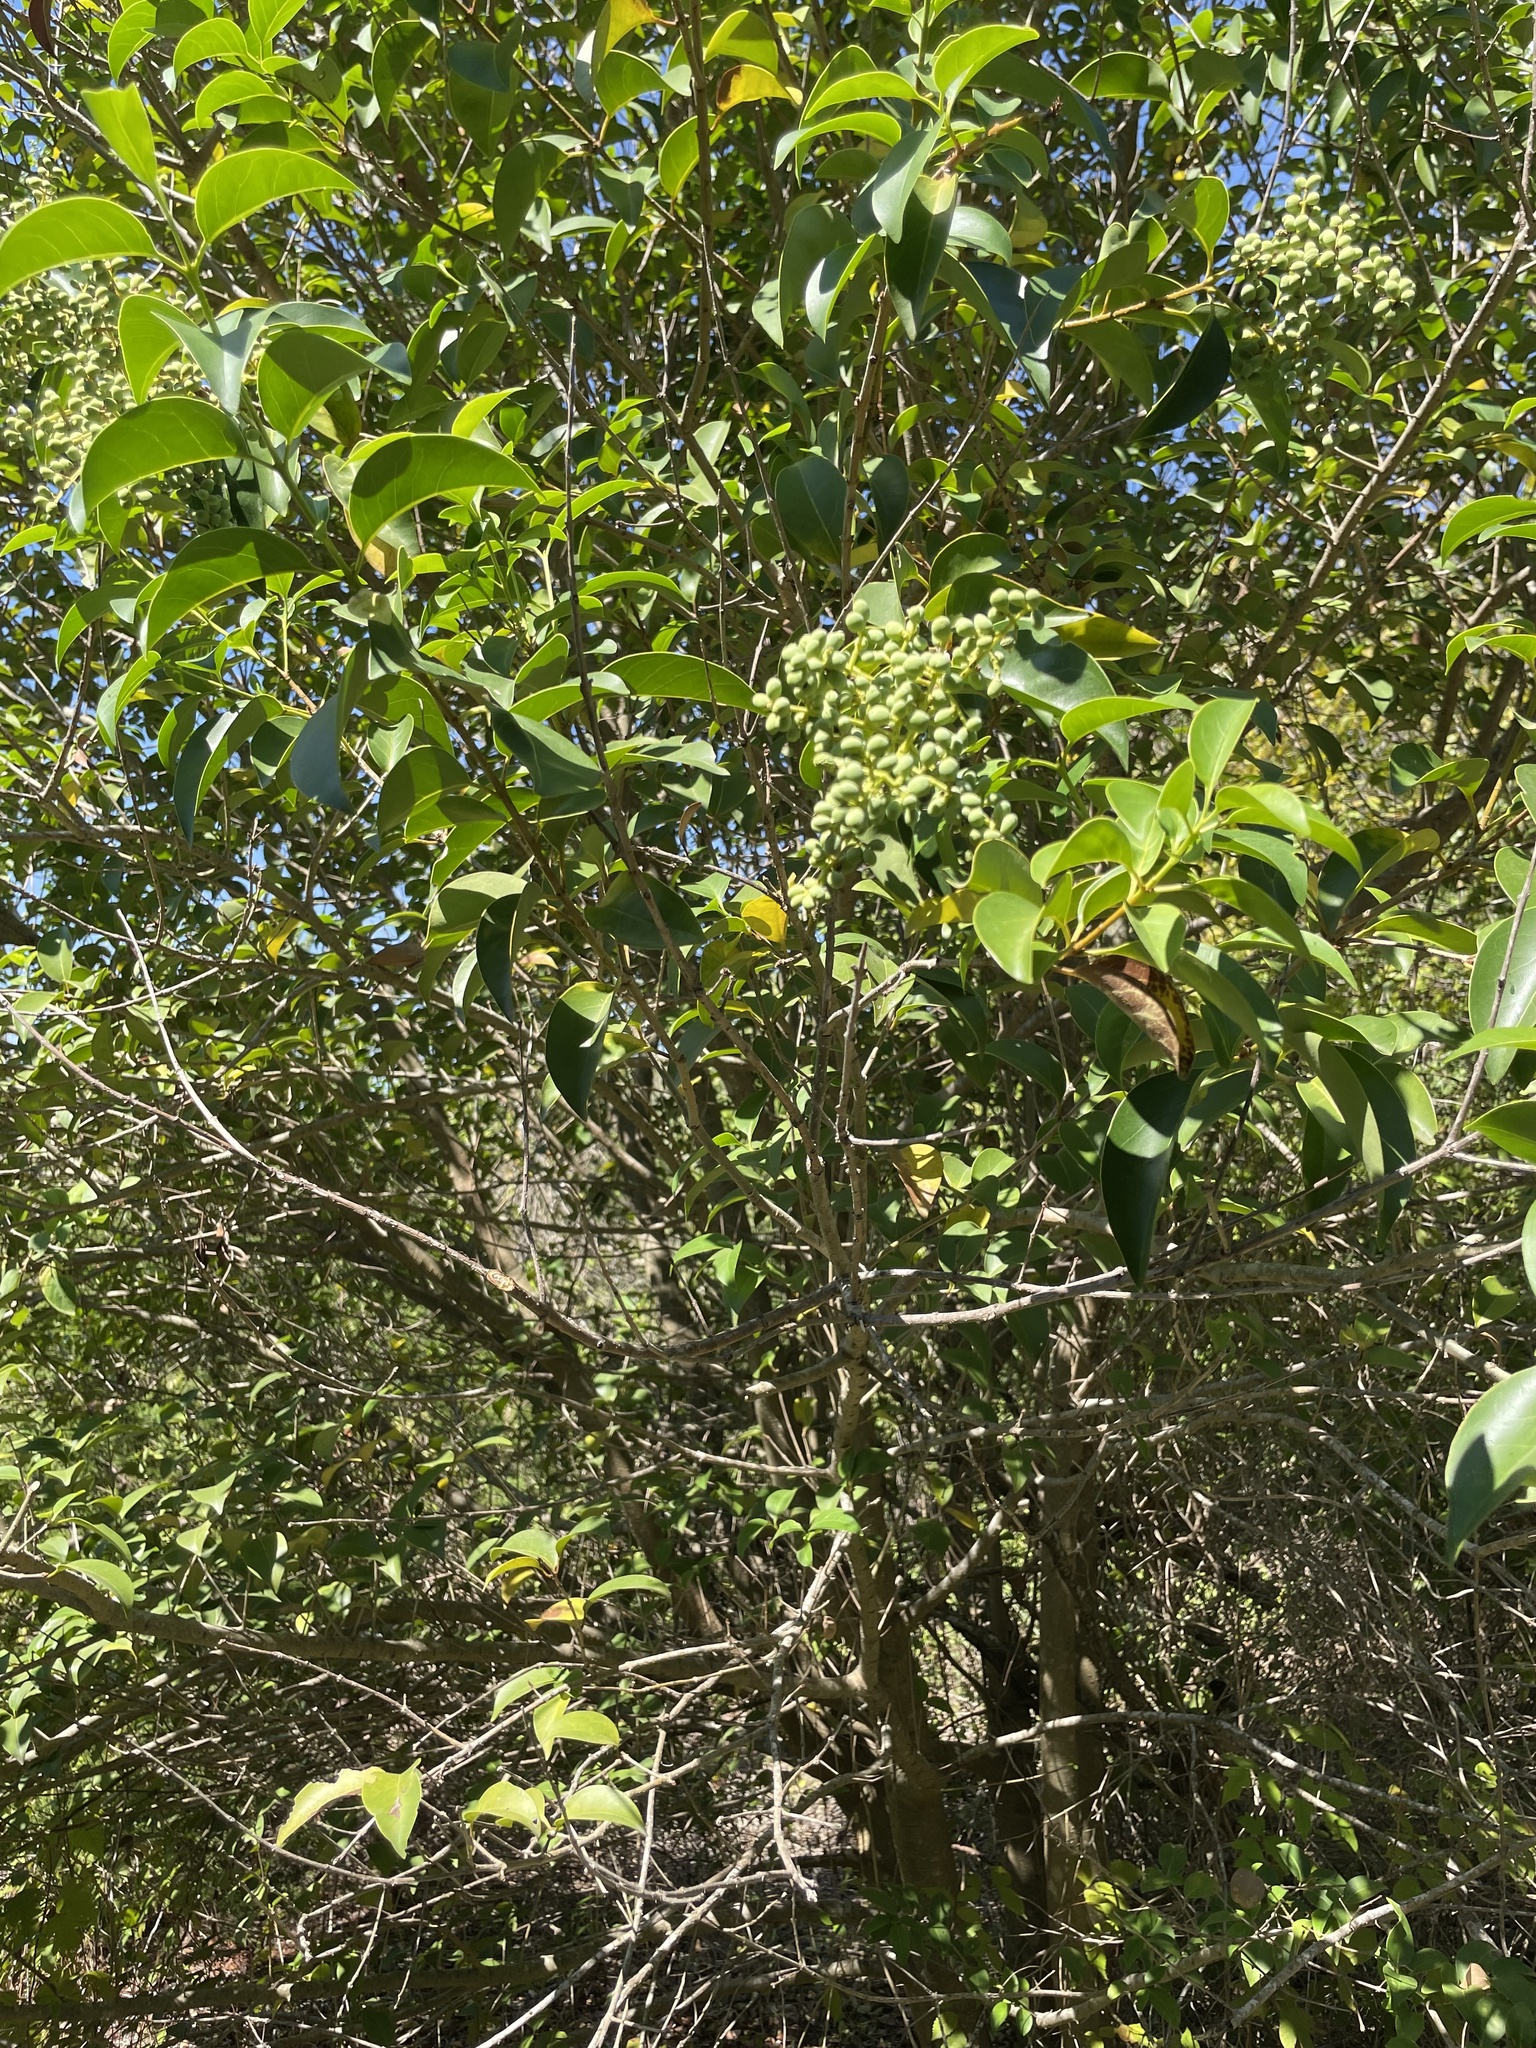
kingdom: Plantae
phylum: Tracheophyta
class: Magnoliopsida
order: Lamiales
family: Oleaceae
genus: Ligustrum
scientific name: Ligustrum lucidum
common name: Glossy privet
